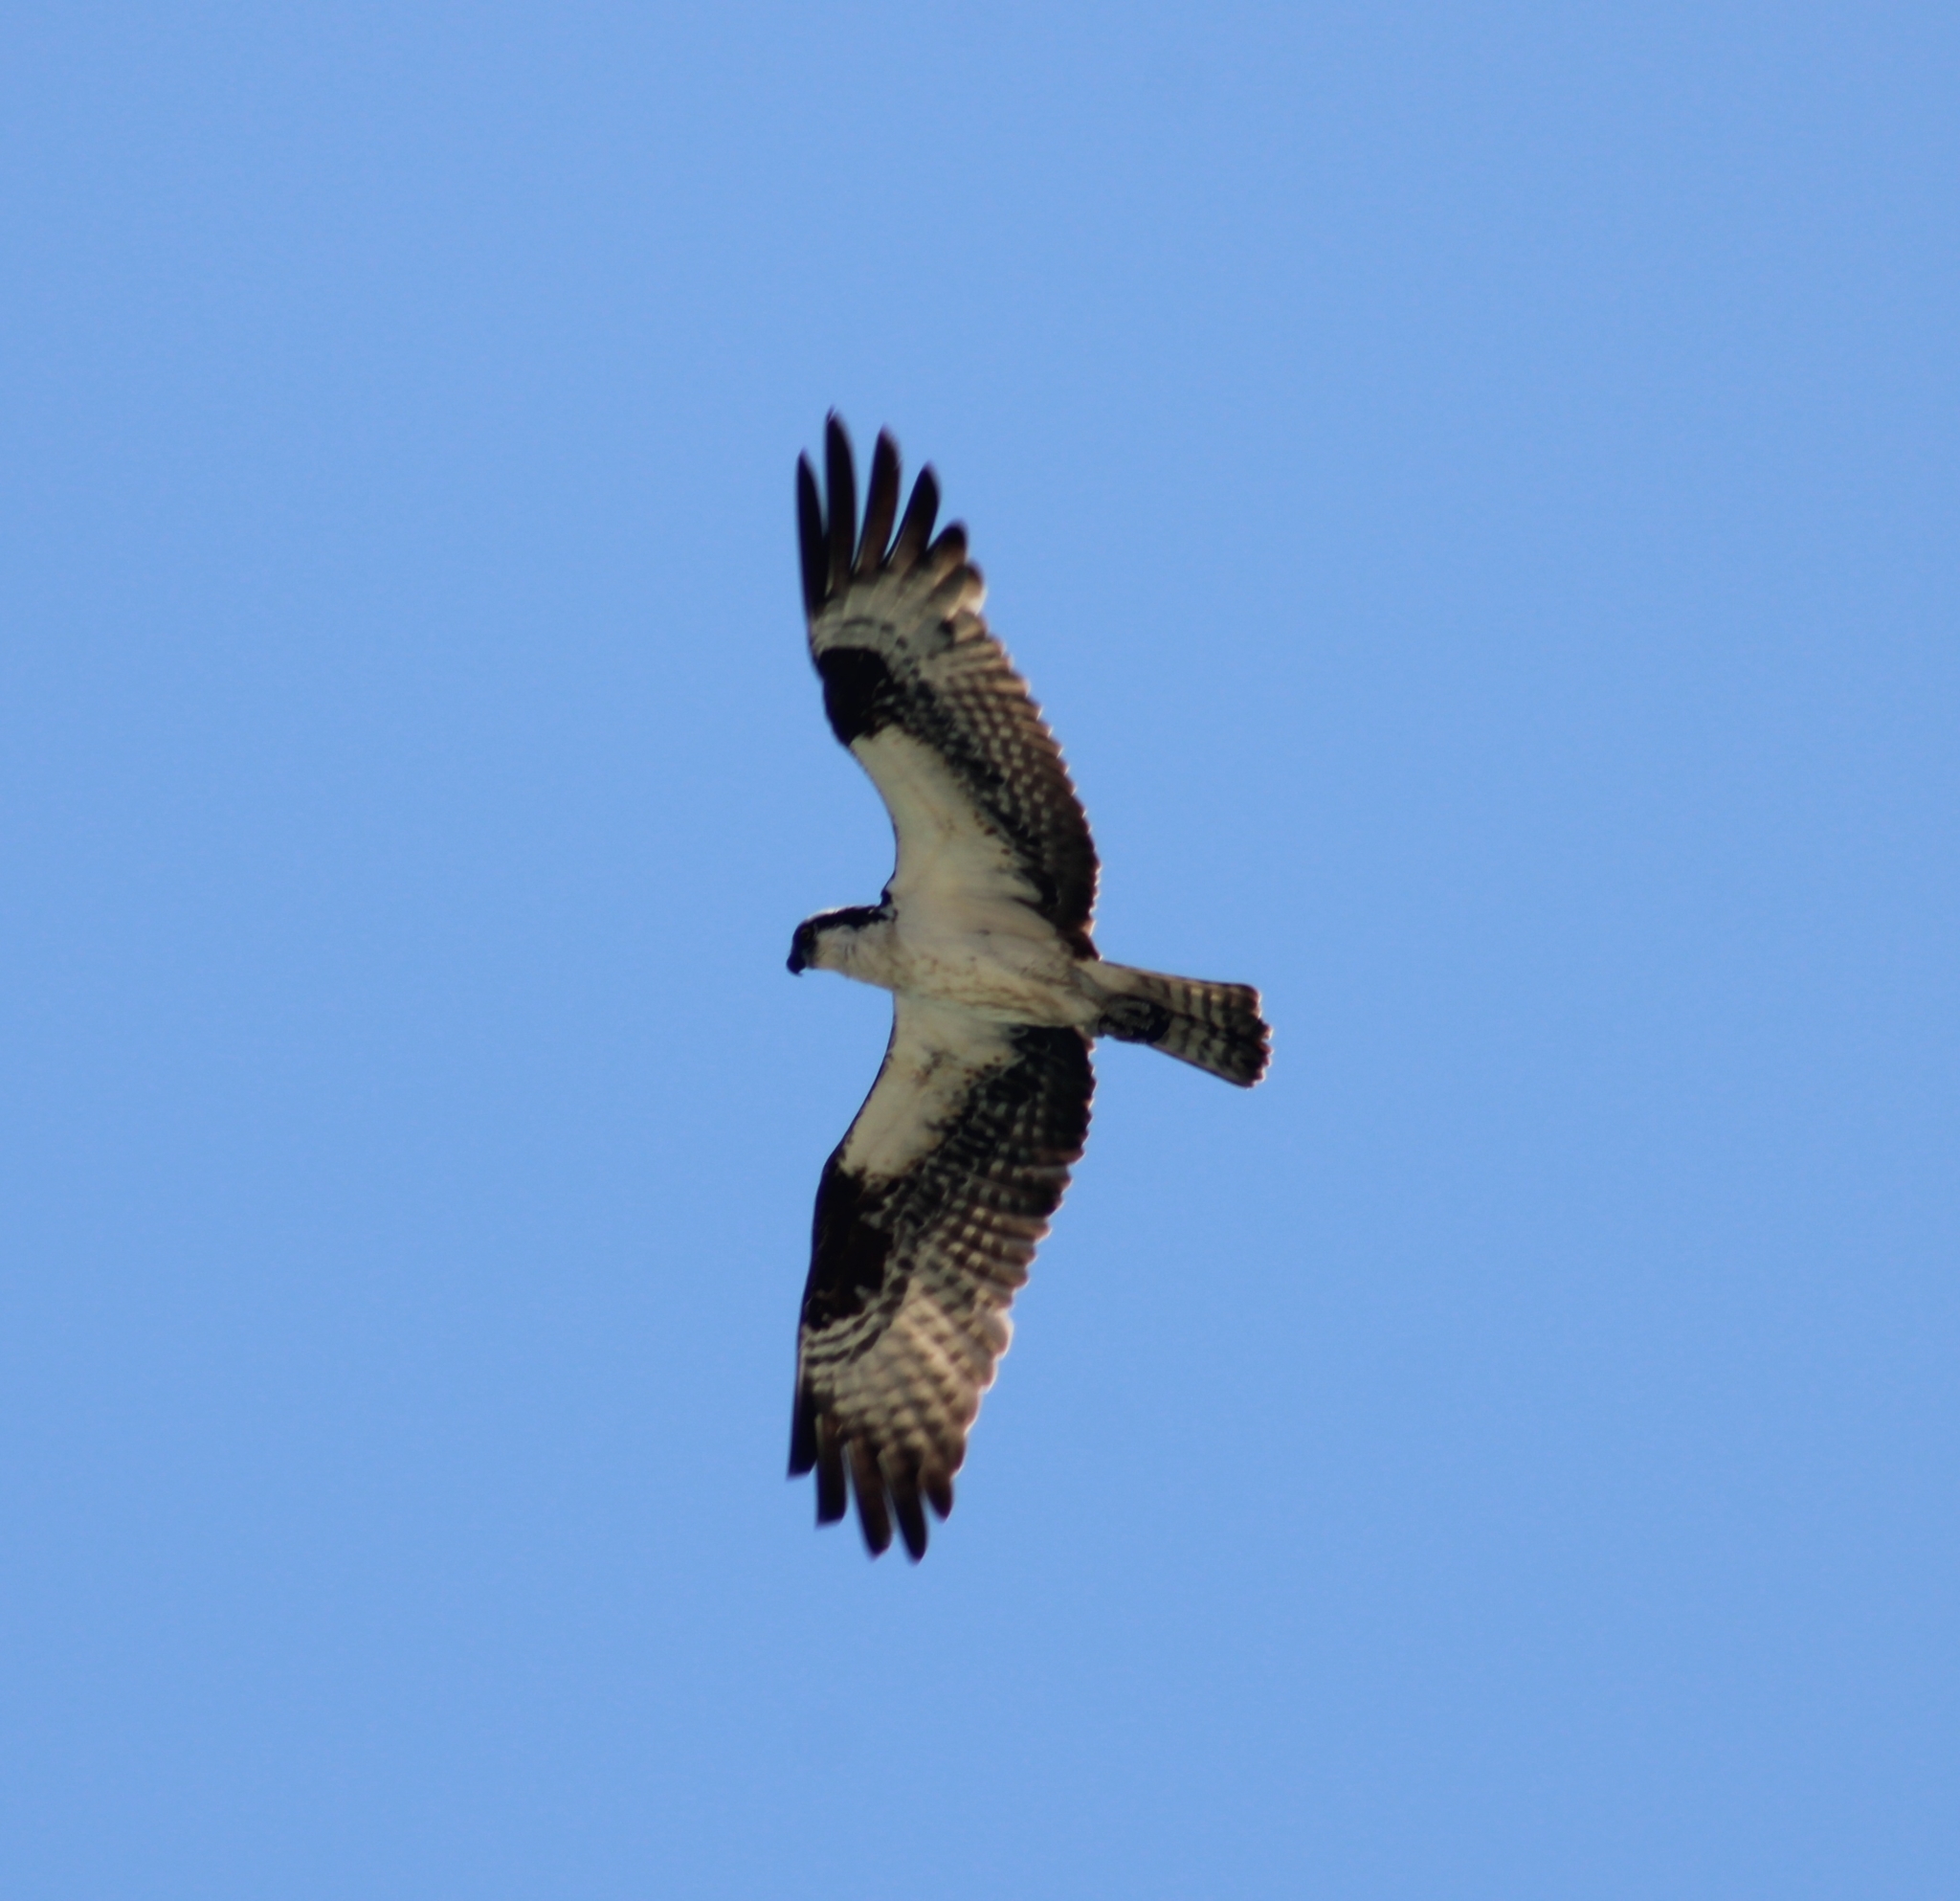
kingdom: Animalia
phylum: Chordata
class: Aves
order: Accipitriformes
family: Pandionidae
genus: Pandion
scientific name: Pandion haliaetus
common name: Osprey
